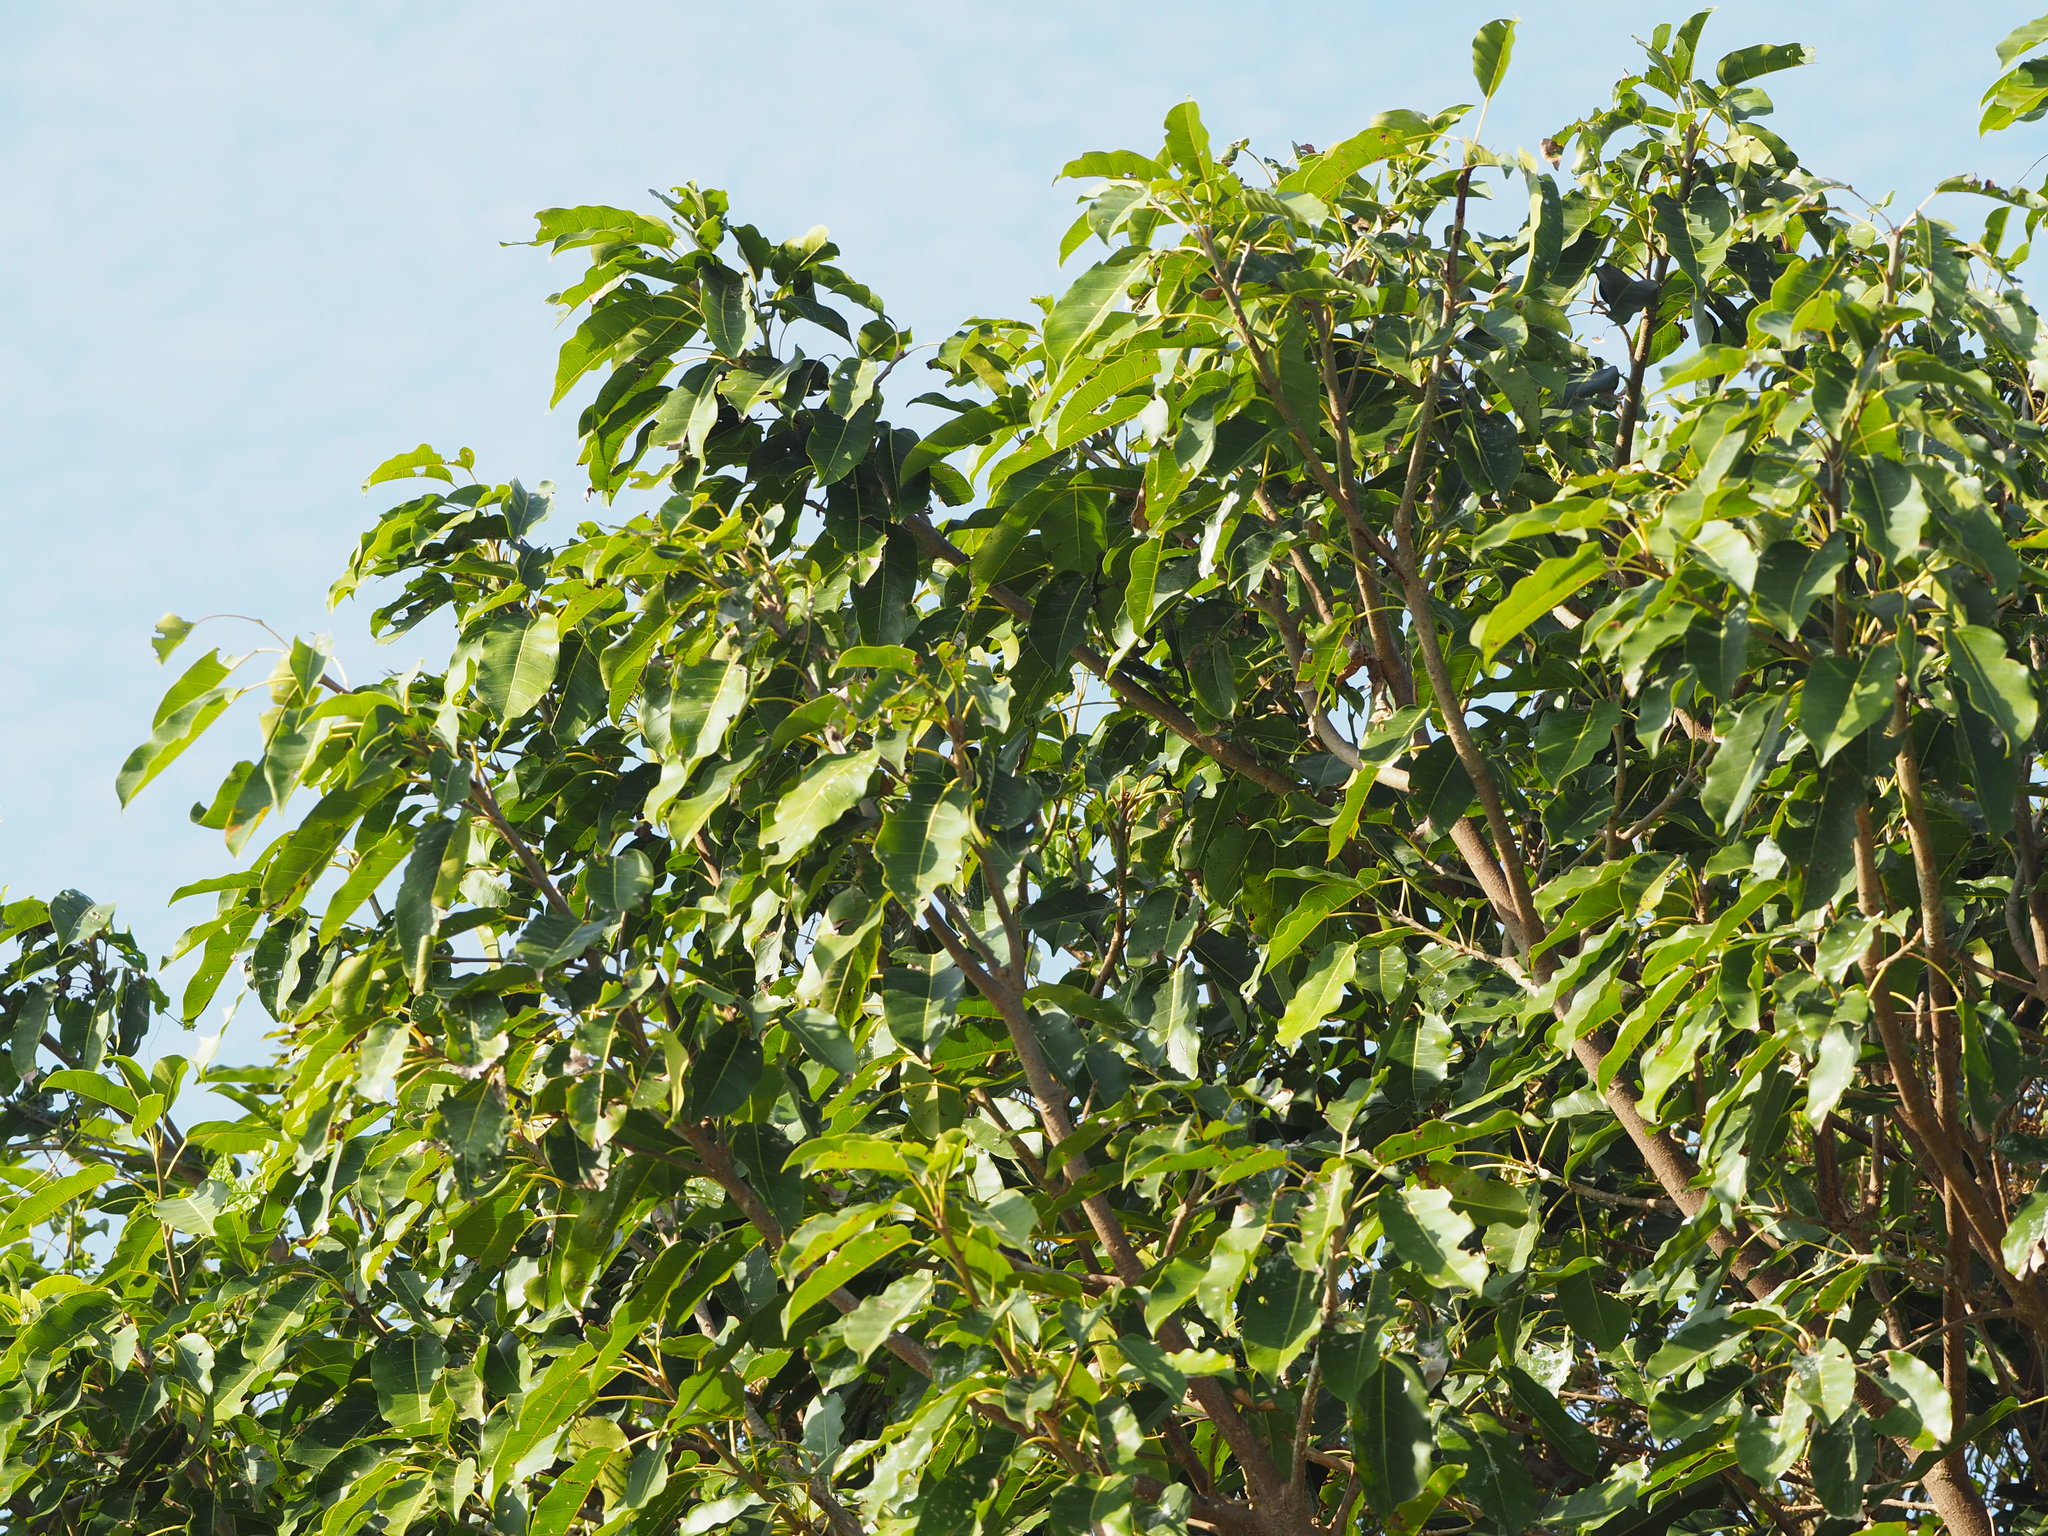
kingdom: Plantae
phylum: Tracheophyta
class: Magnoliopsida
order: Rosales
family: Moraceae
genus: Ficus
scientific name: Ficus subpisocarpa
